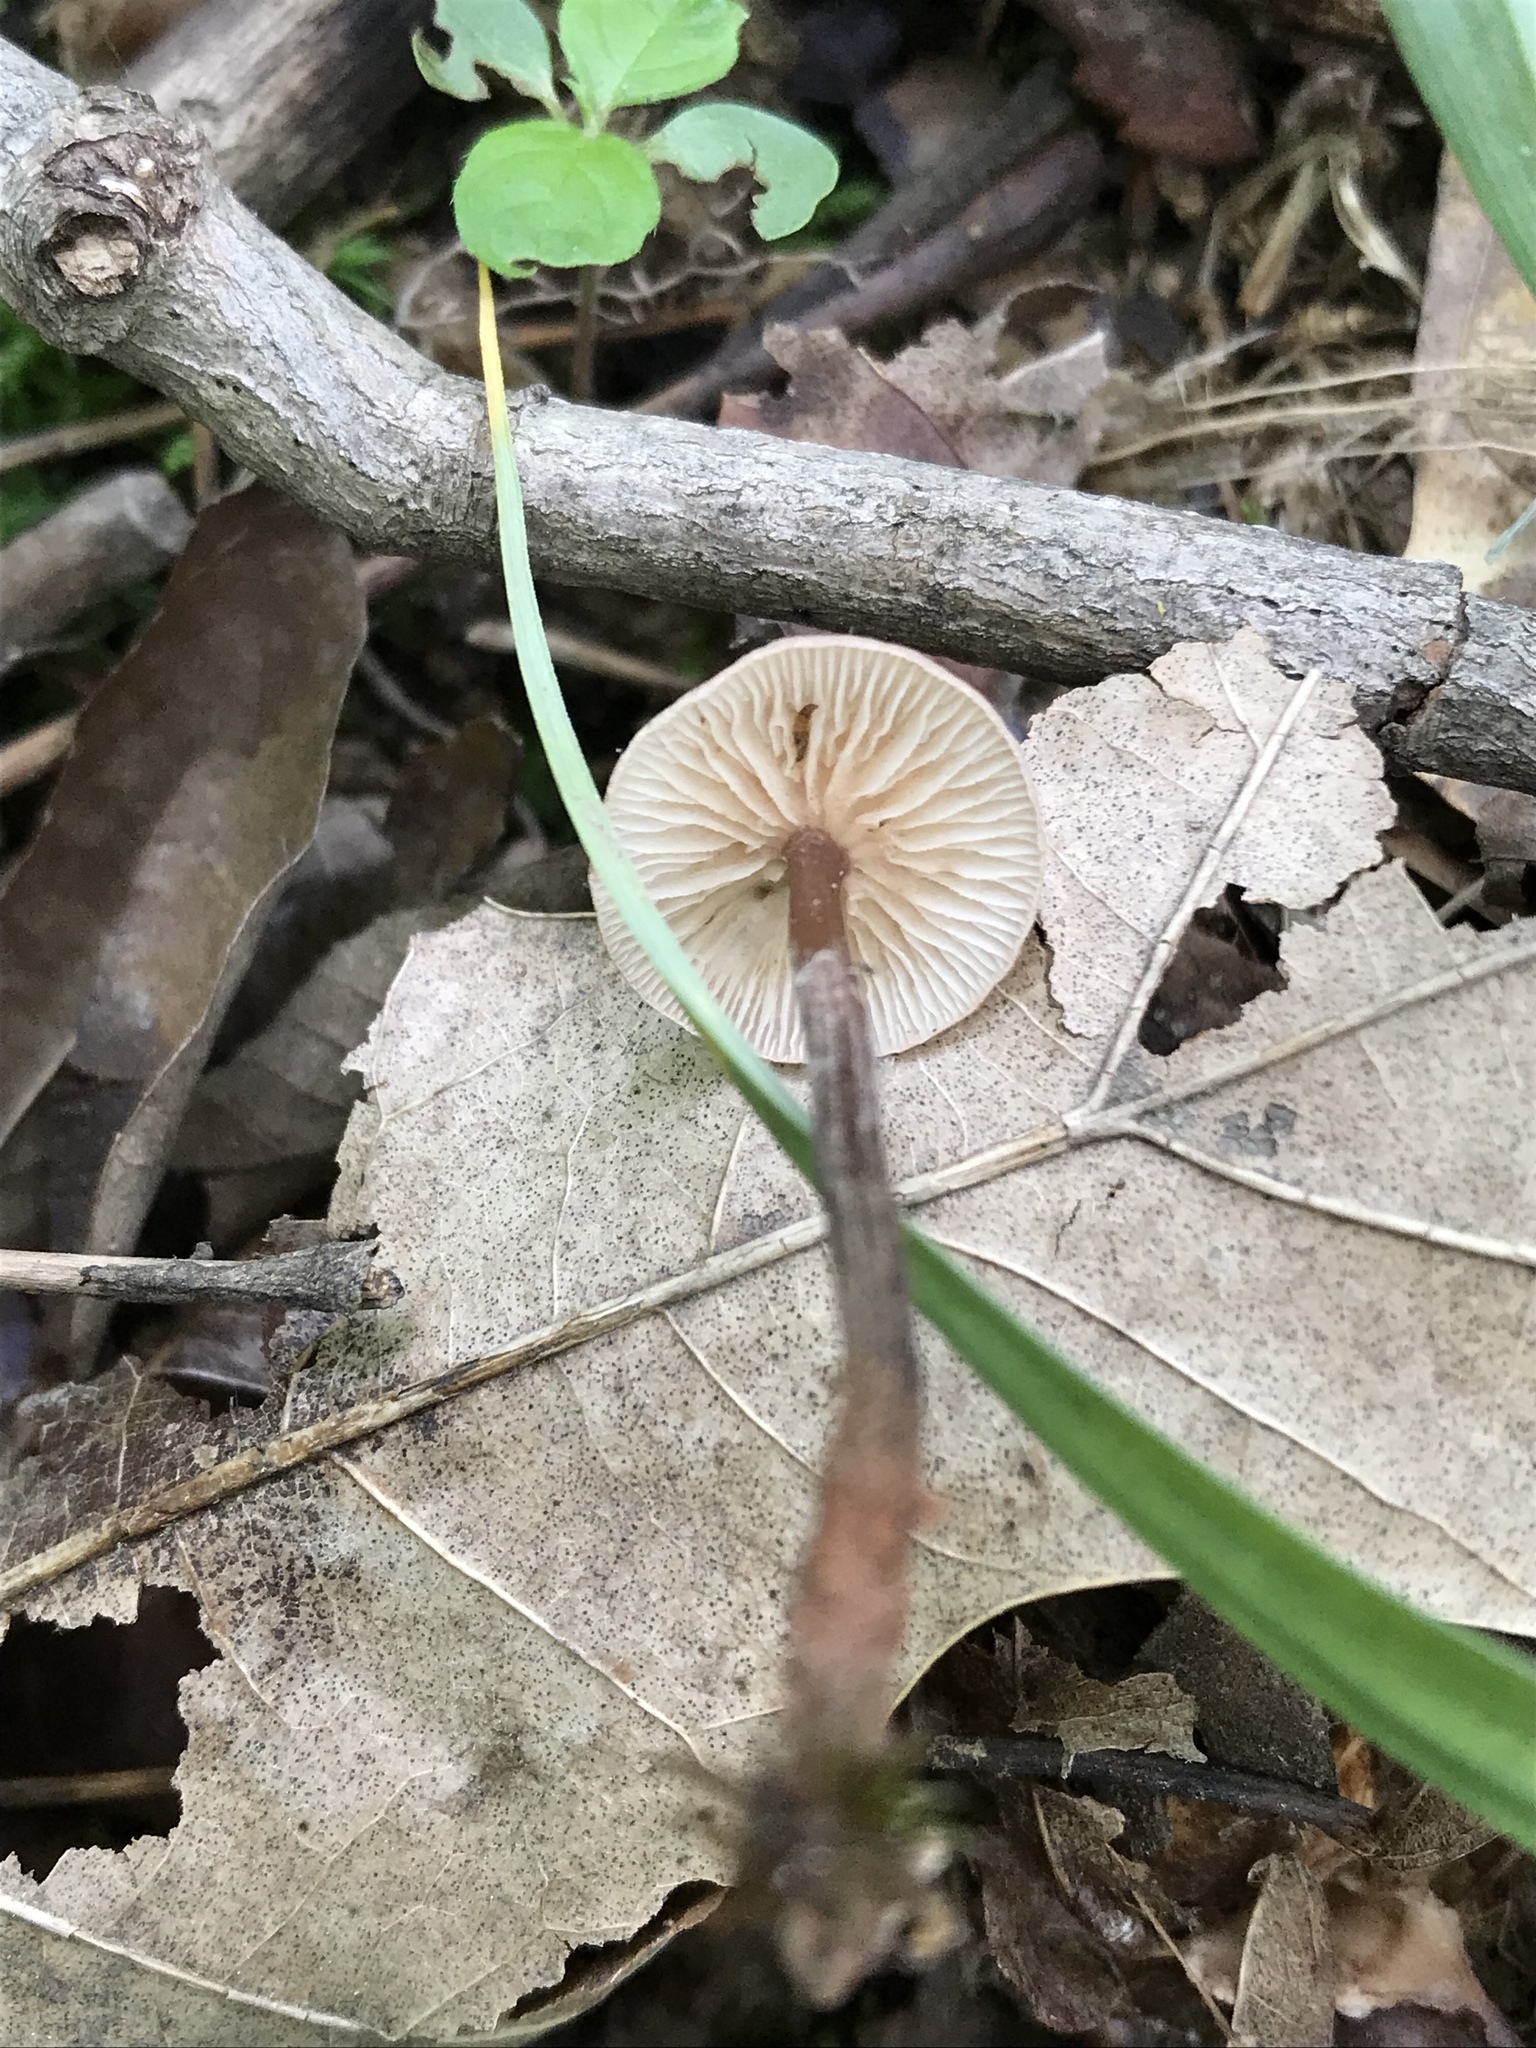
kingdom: Fungi
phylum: Basidiomycota
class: Agaricomycetes
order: Agaricales
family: Omphalotaceae
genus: Gymnopus
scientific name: Gymnopus semihirtipes
